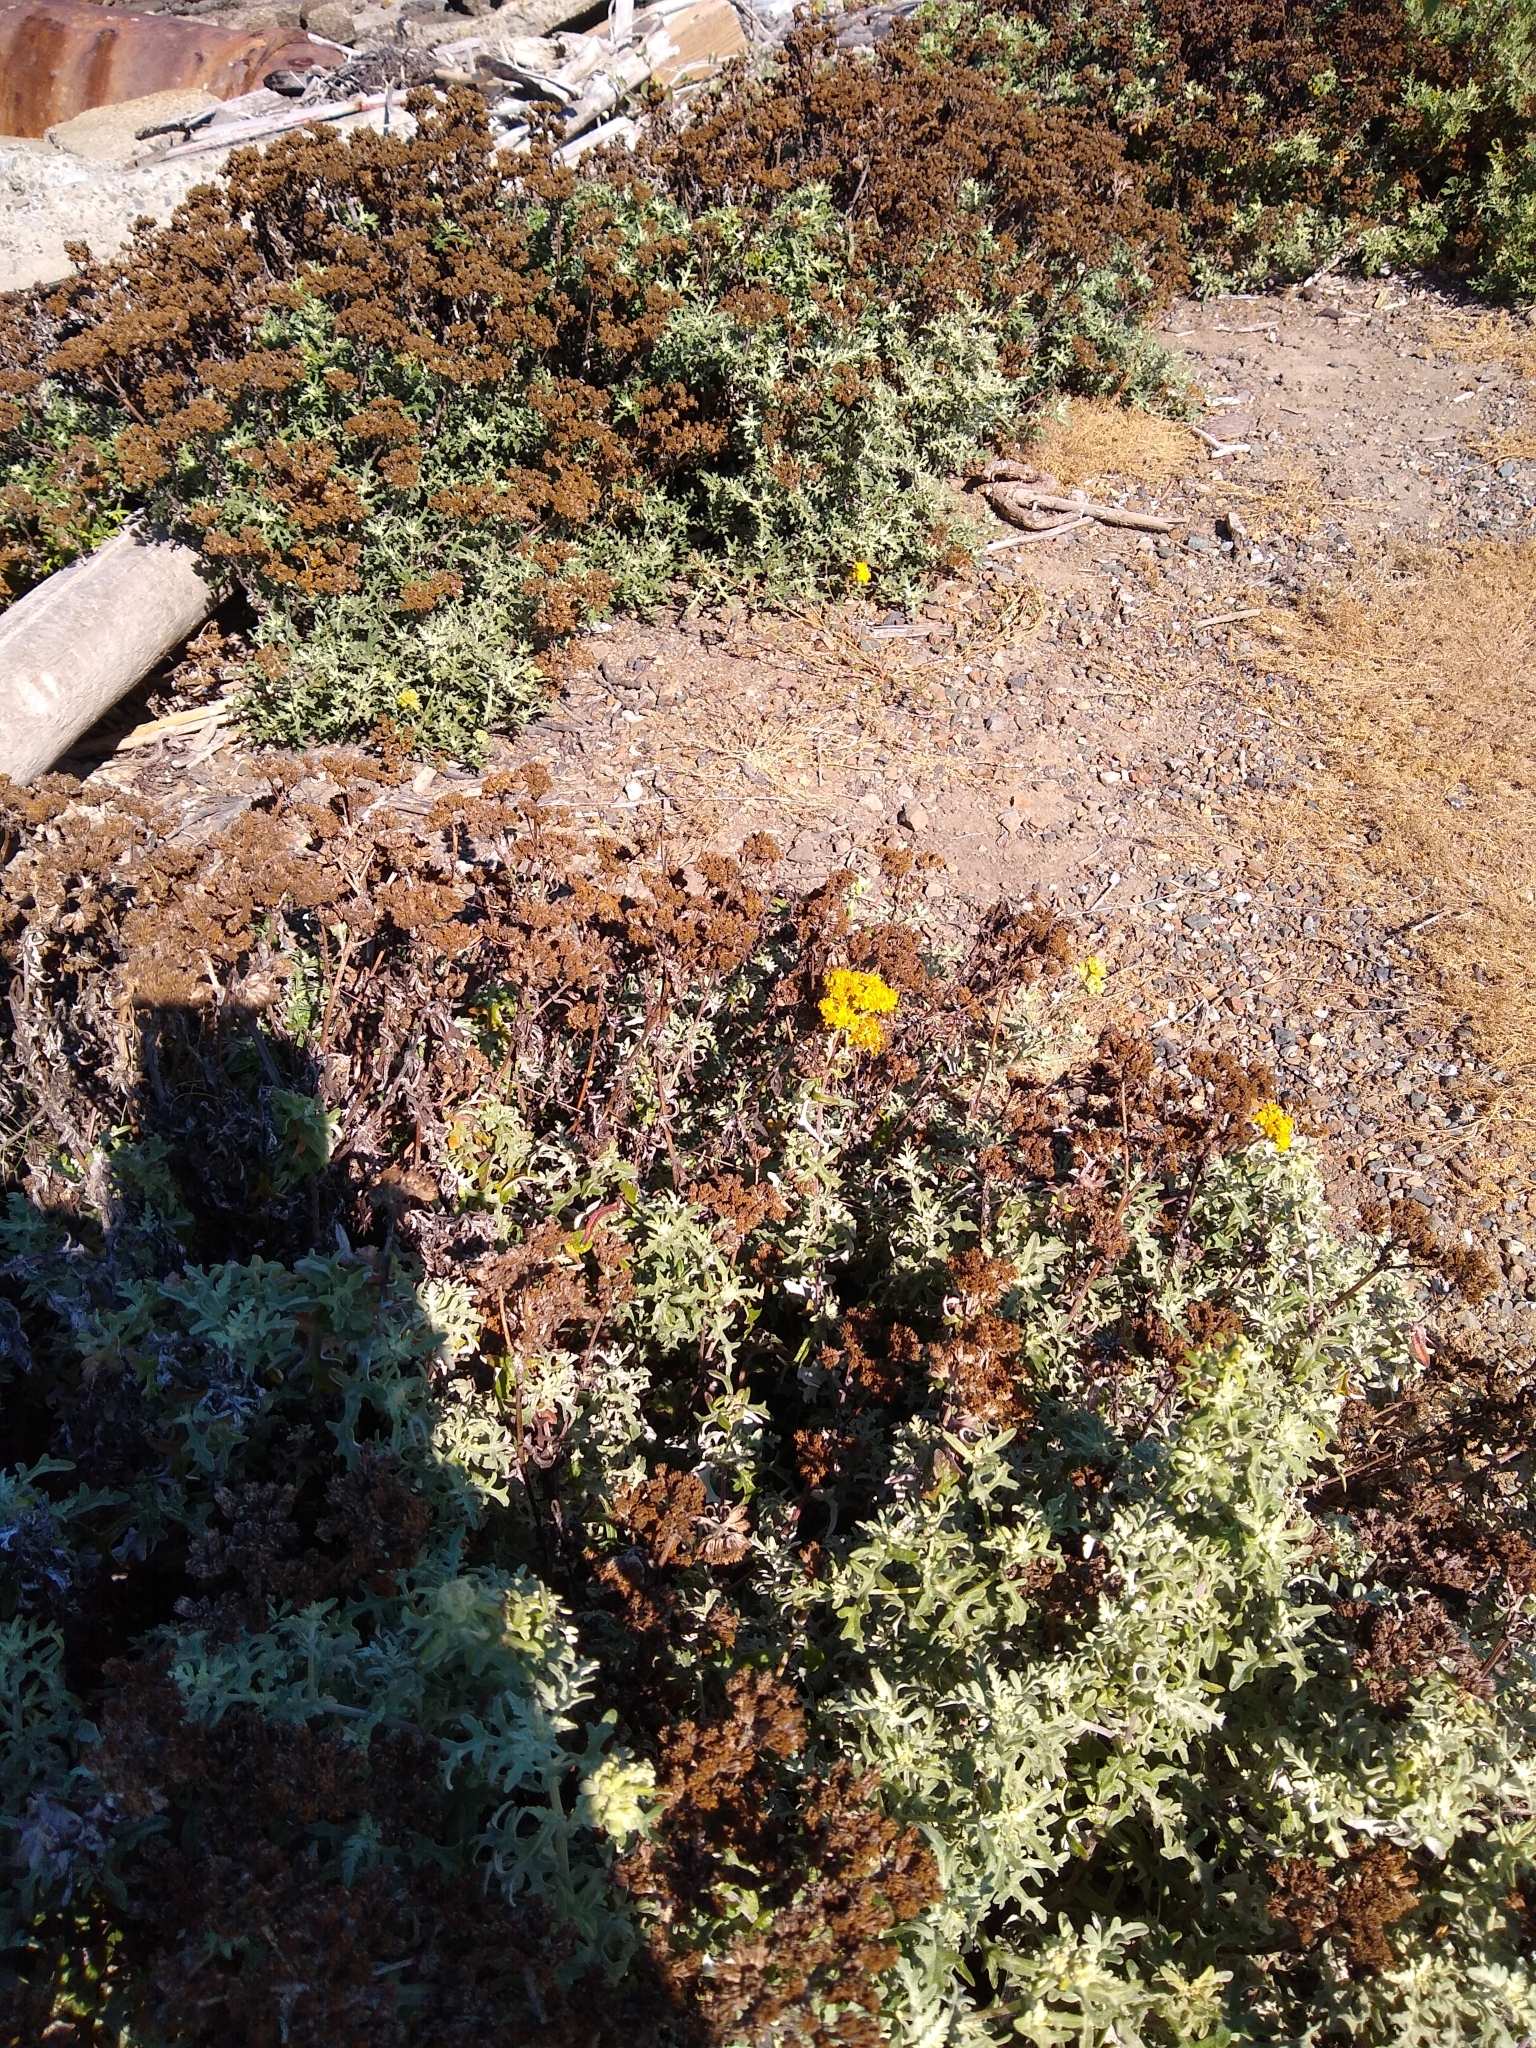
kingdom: Plantae
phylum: Tracheophyta
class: Magnoliopsida
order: Asterales
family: Asteraceae
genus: Eriophyllum
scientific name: Eriophyllum staechadifolium
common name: Lizardtail
